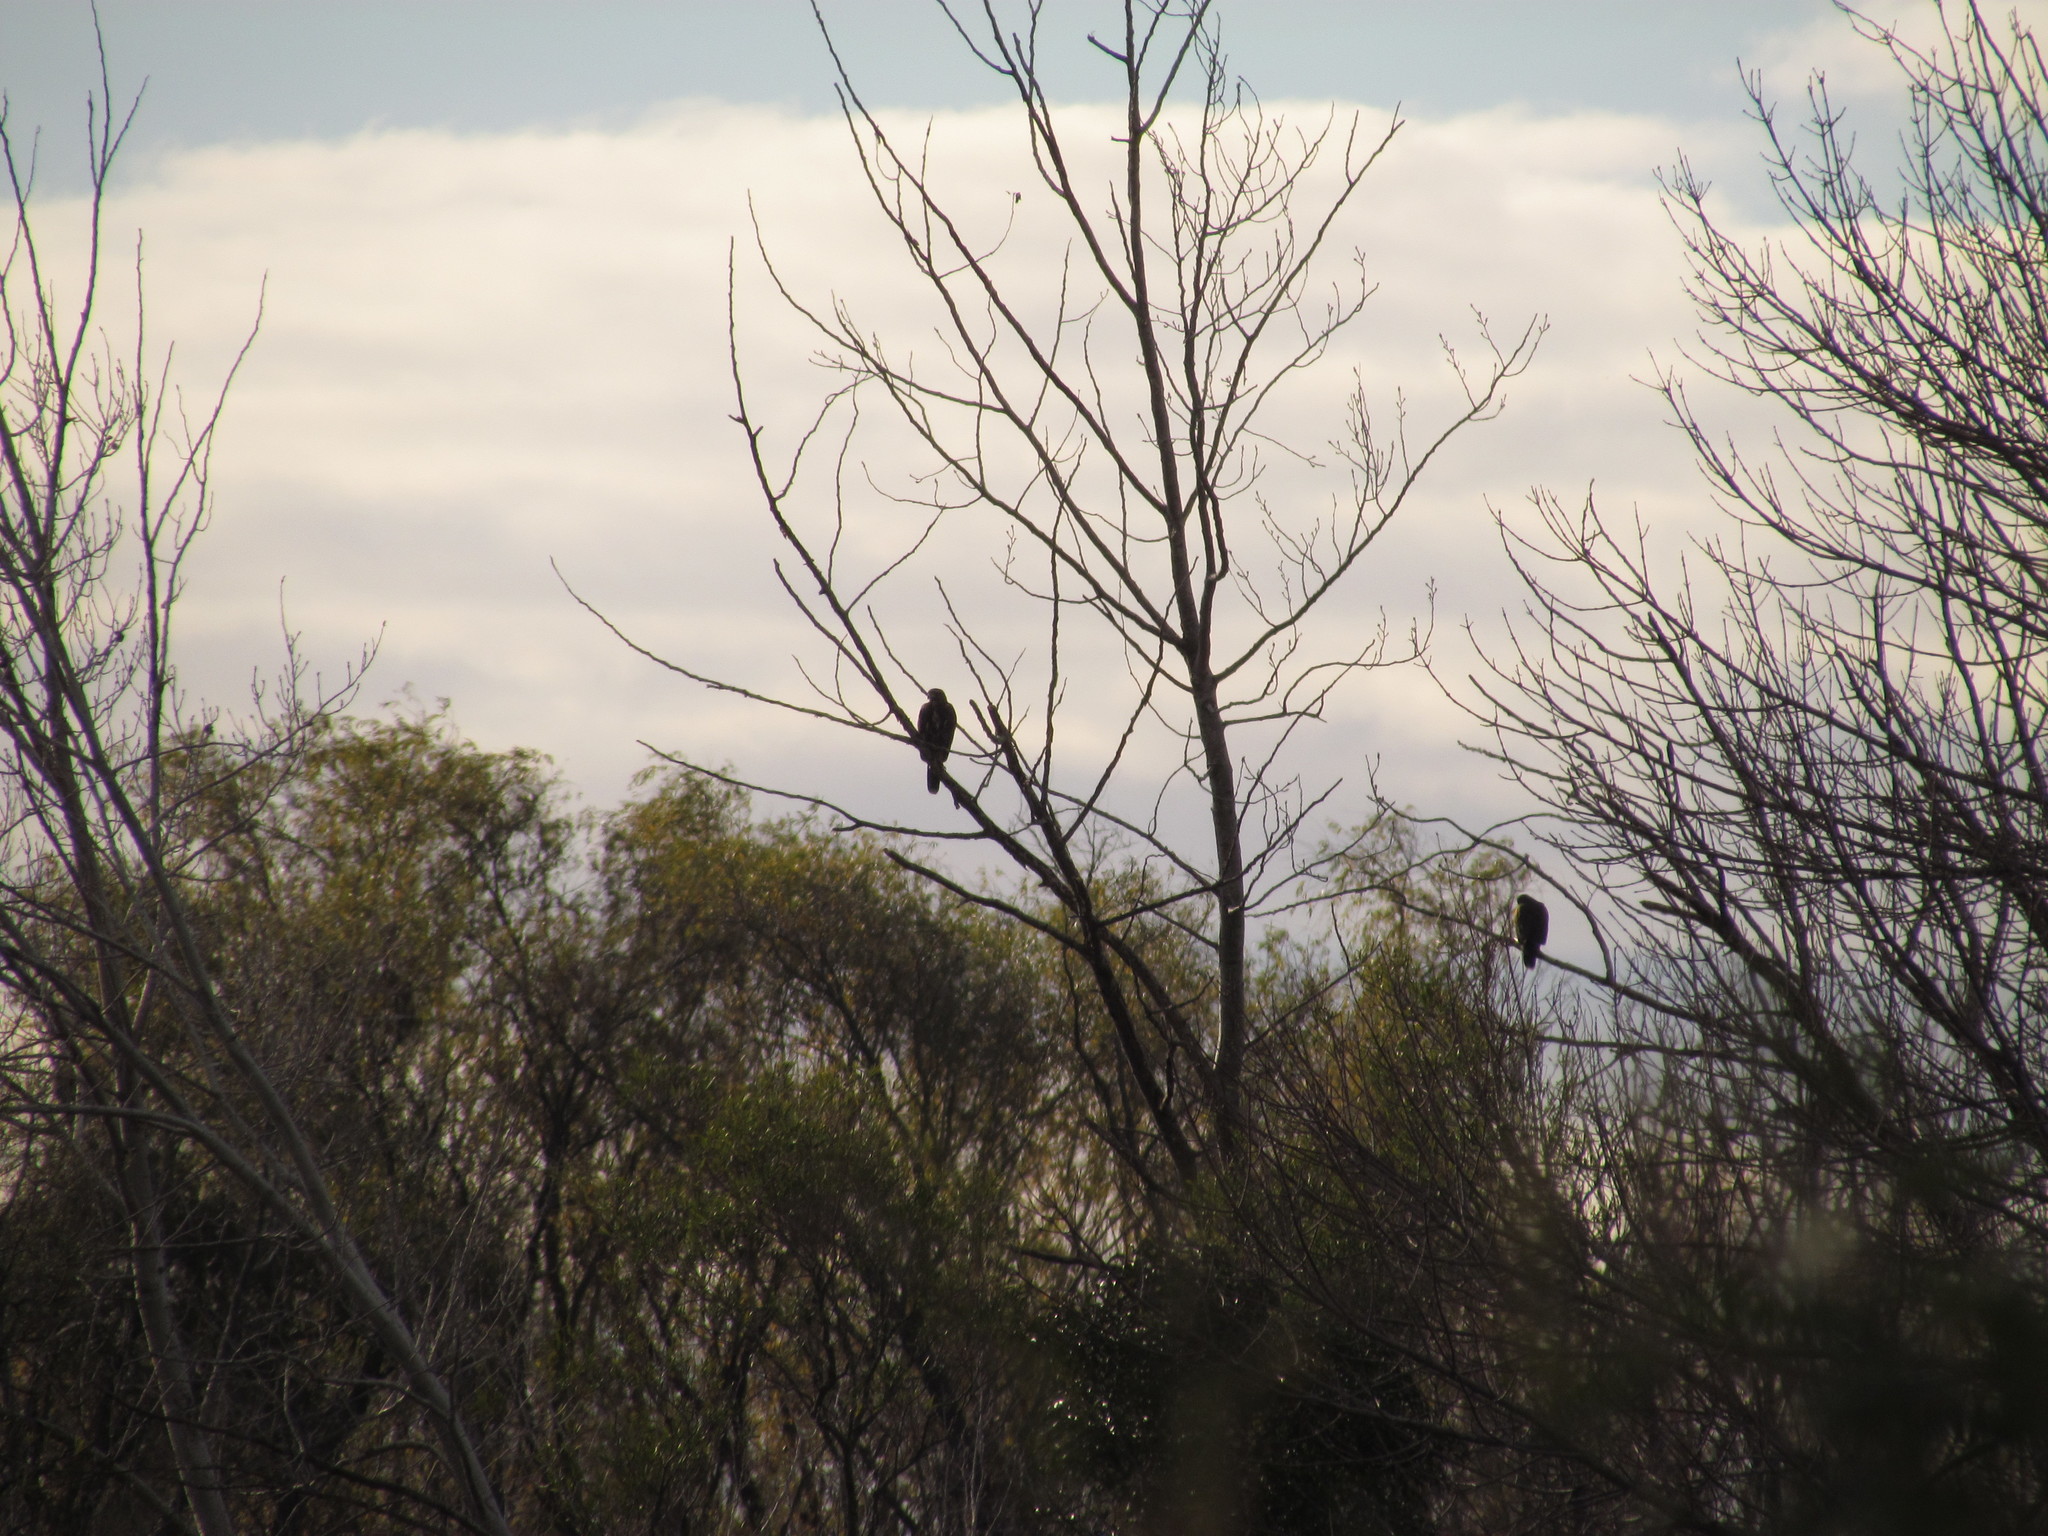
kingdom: Animalia
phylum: Chordata
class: Aves
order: Accipitriformes
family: Accipitridae
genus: Parabuteo
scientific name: Parabuteo unicinctus
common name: Harris's hawk
